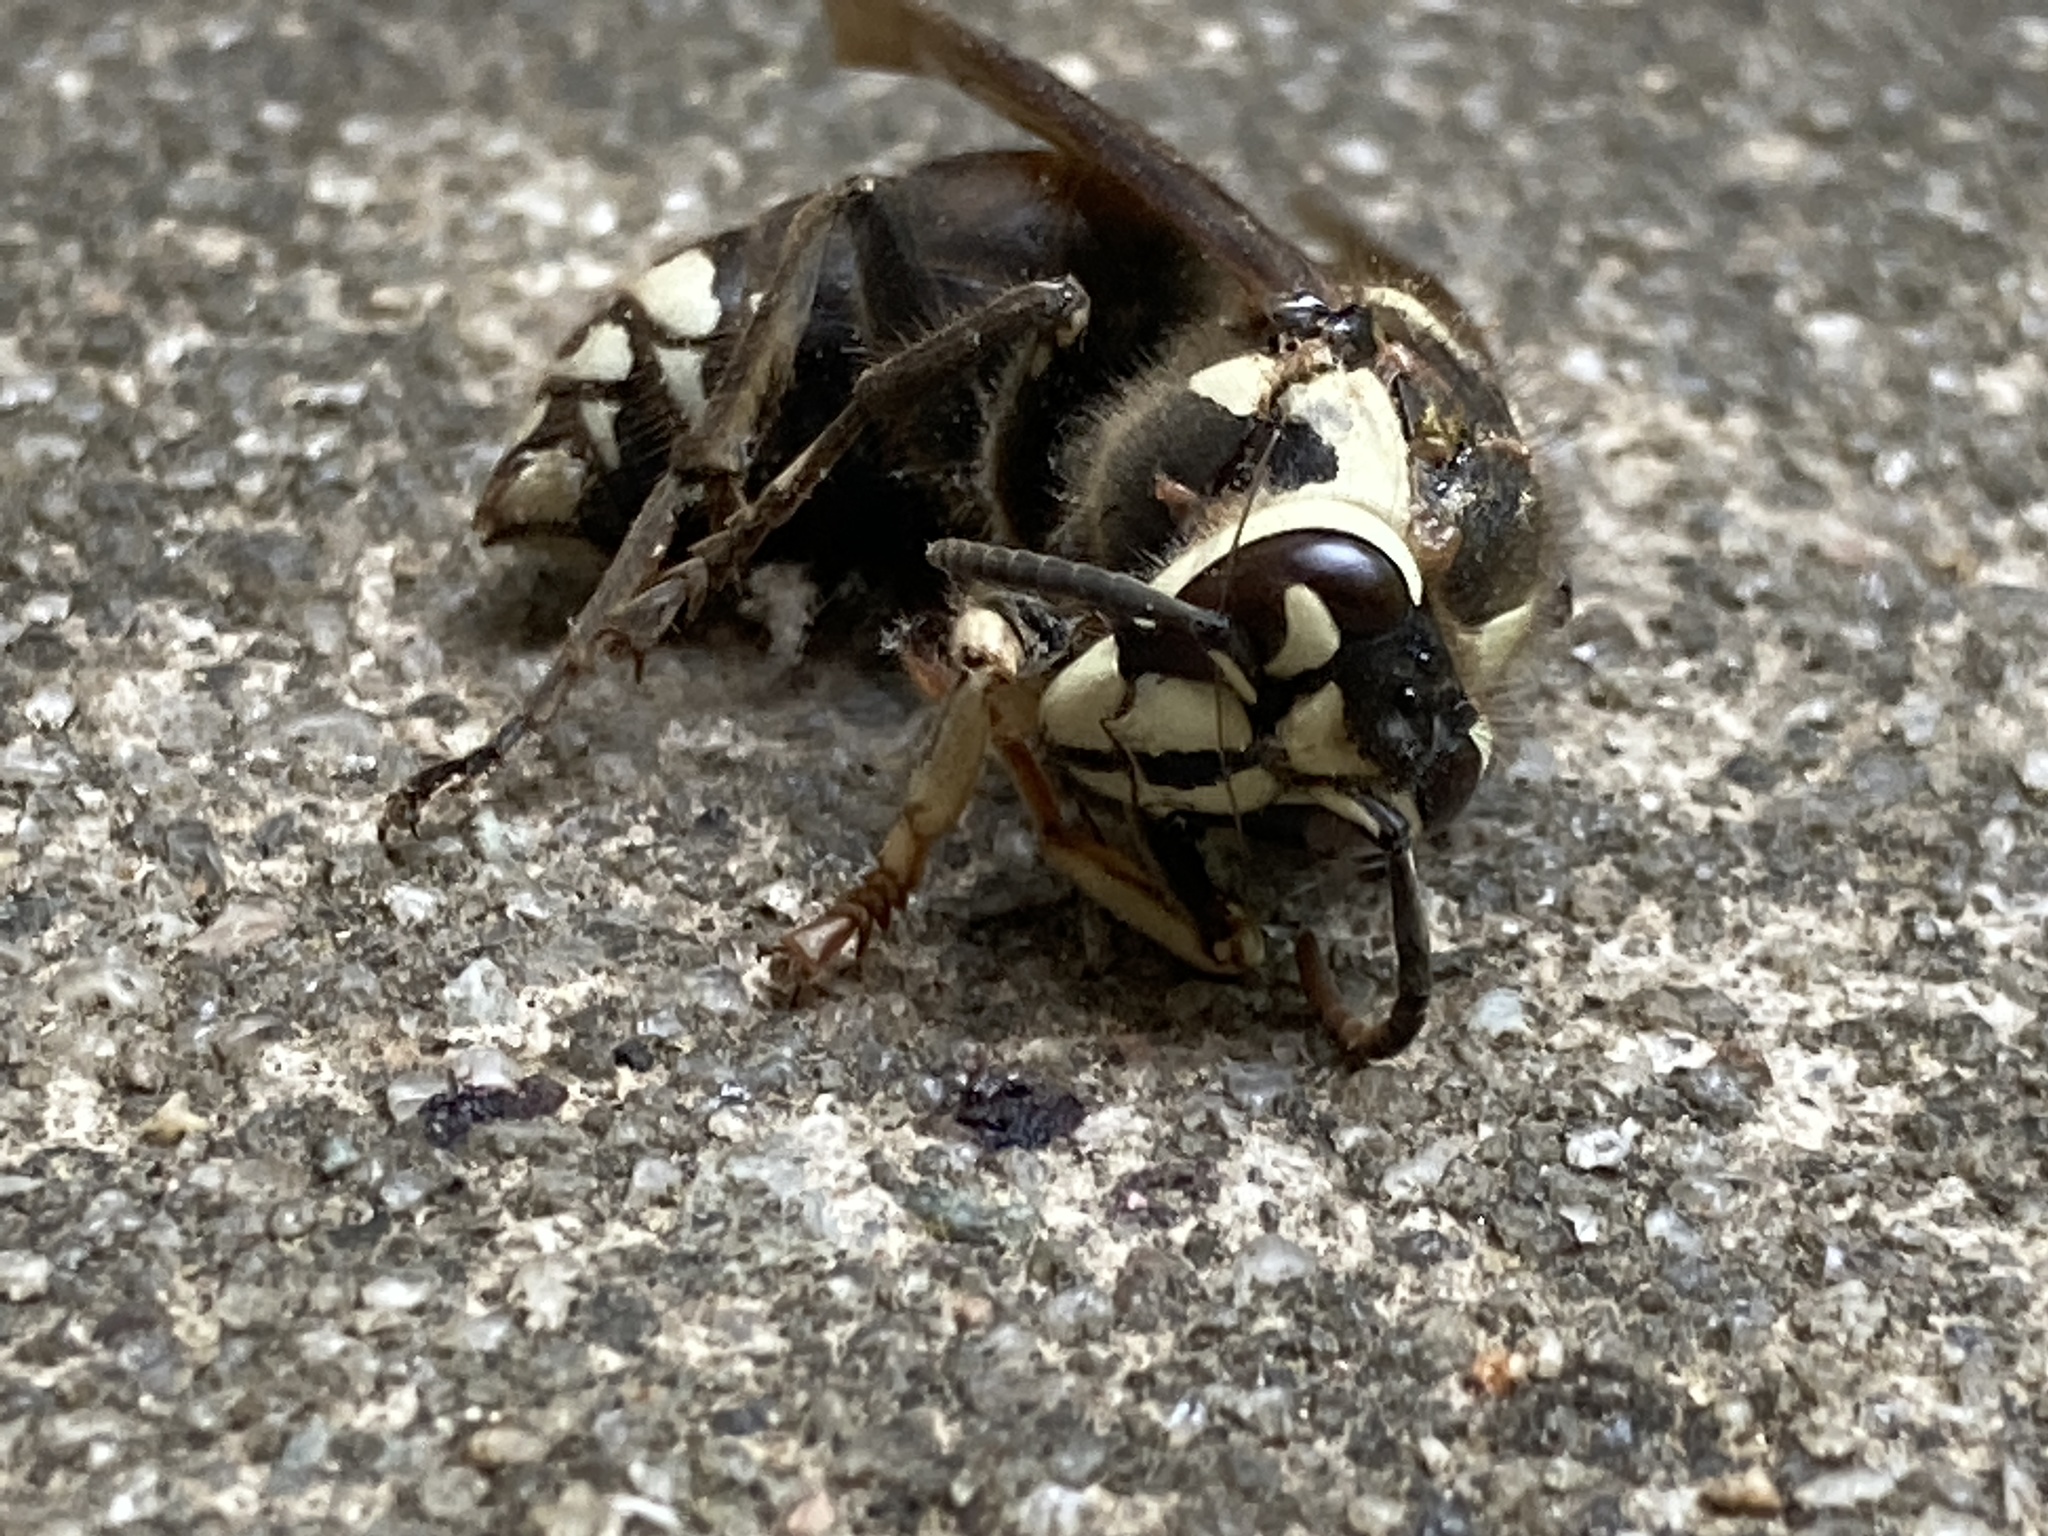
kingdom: Animalia
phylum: Arthropoda
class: Insecta
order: Hymenoptera
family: Vespidae
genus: Dolichovespula
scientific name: Dolichovespula maculata
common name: Bald-faced hornet
